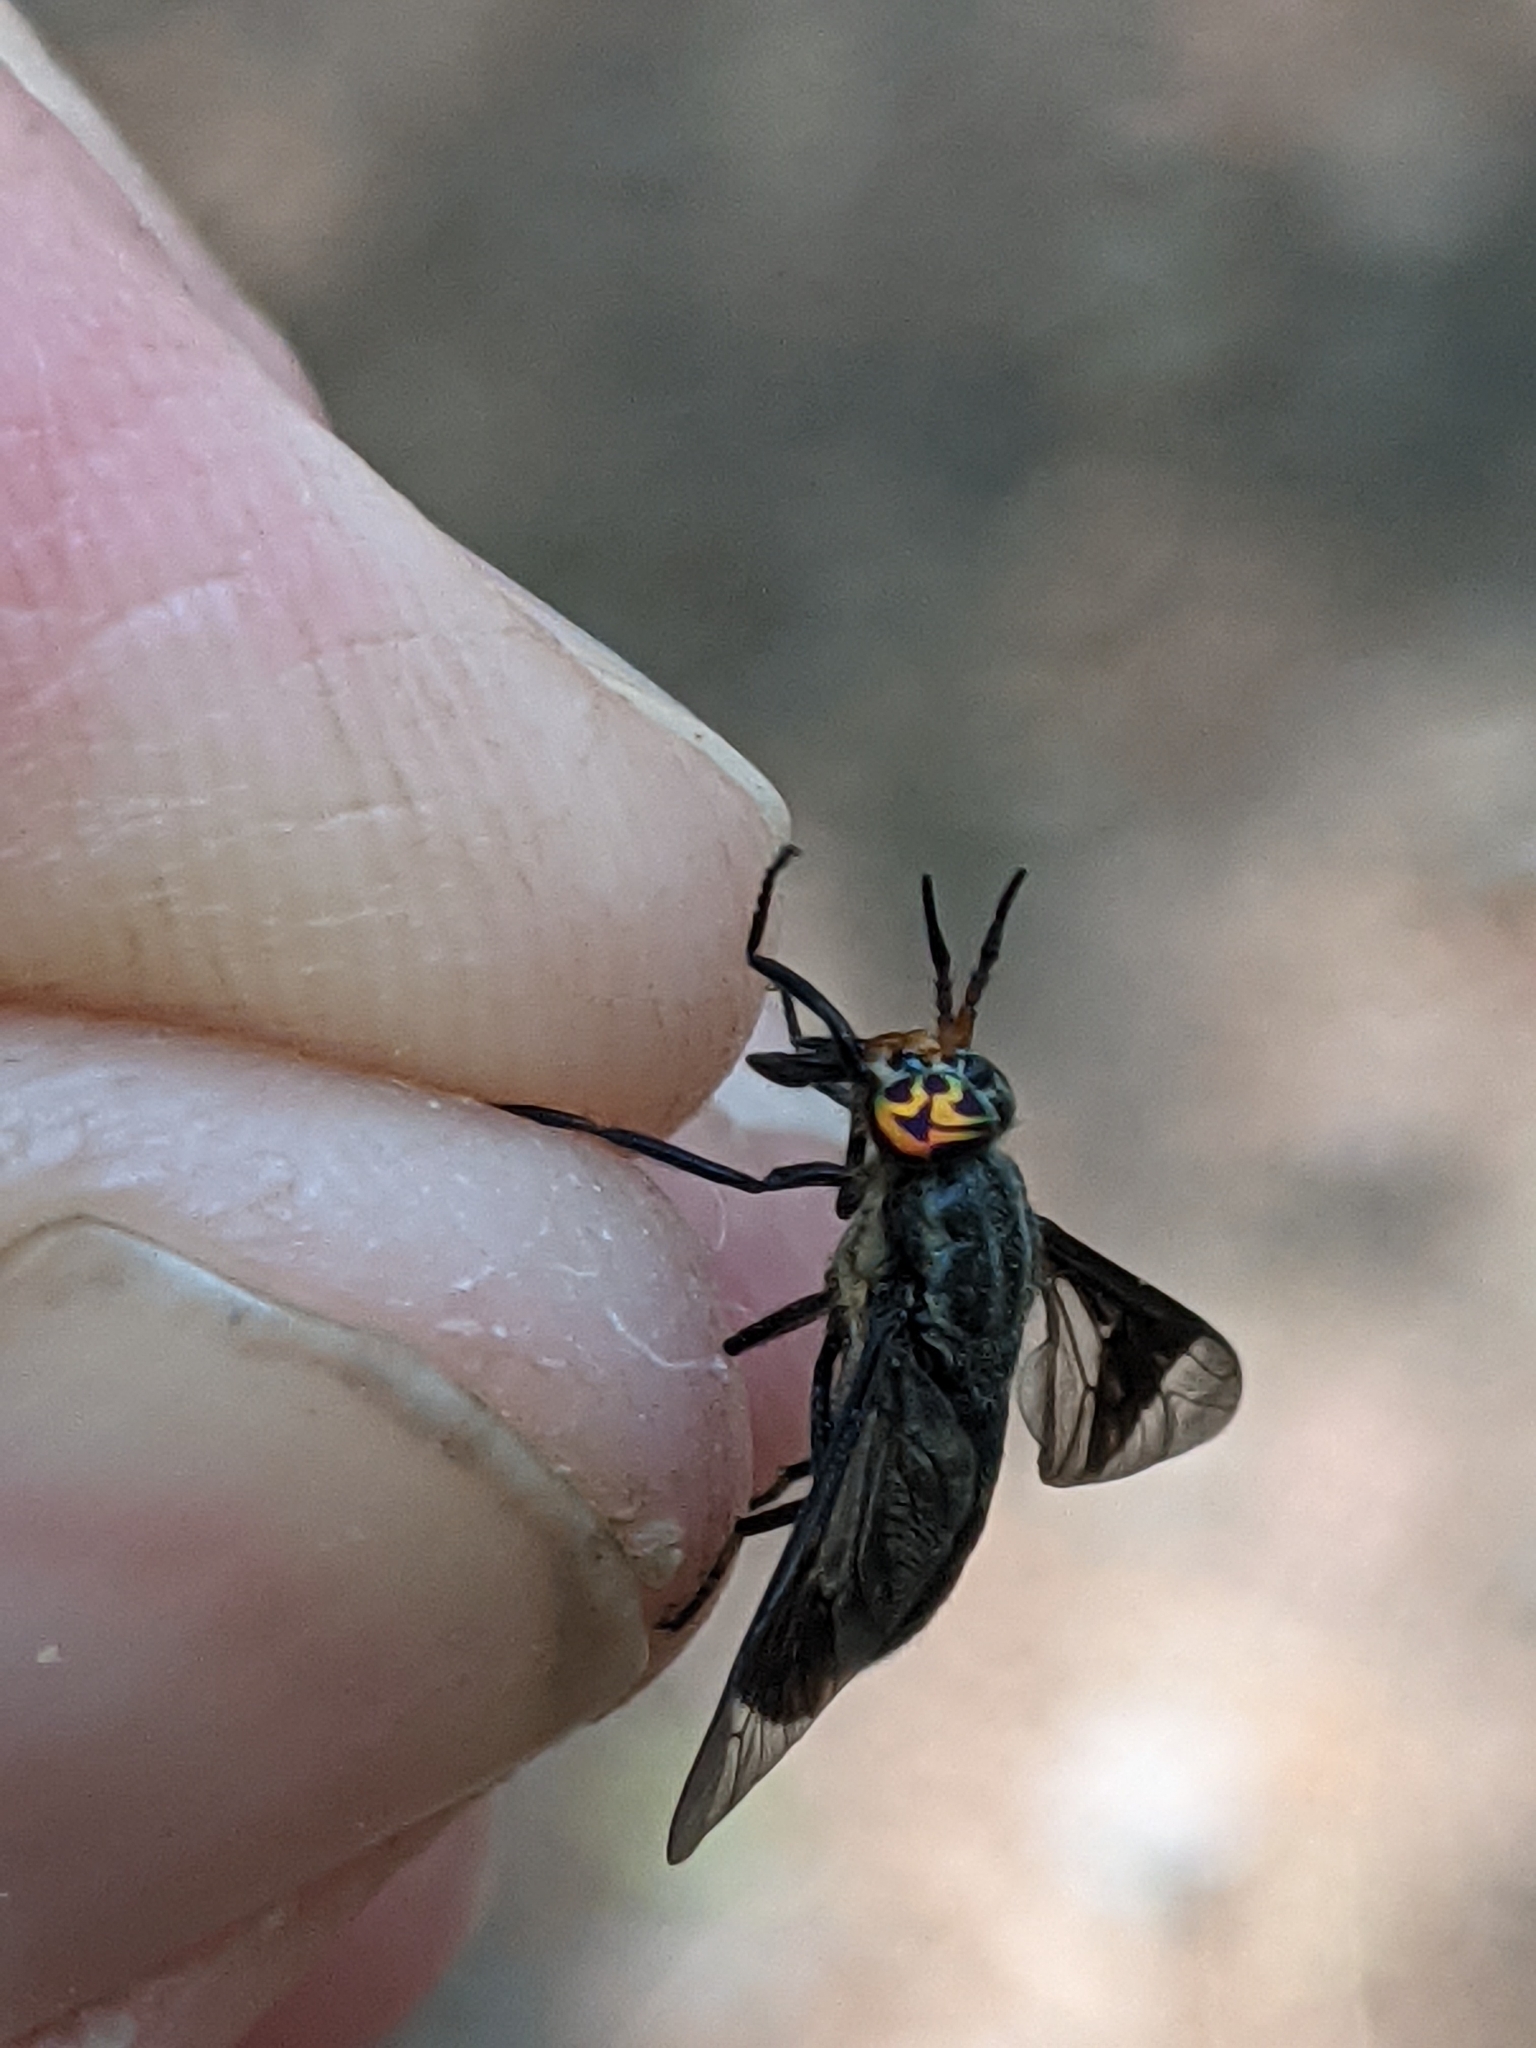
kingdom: Animalia
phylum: Arthropoda
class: Insecta
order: Diptera
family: Tabanidae
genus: Chrysops
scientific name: Chrysops niger
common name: Black deer fly
